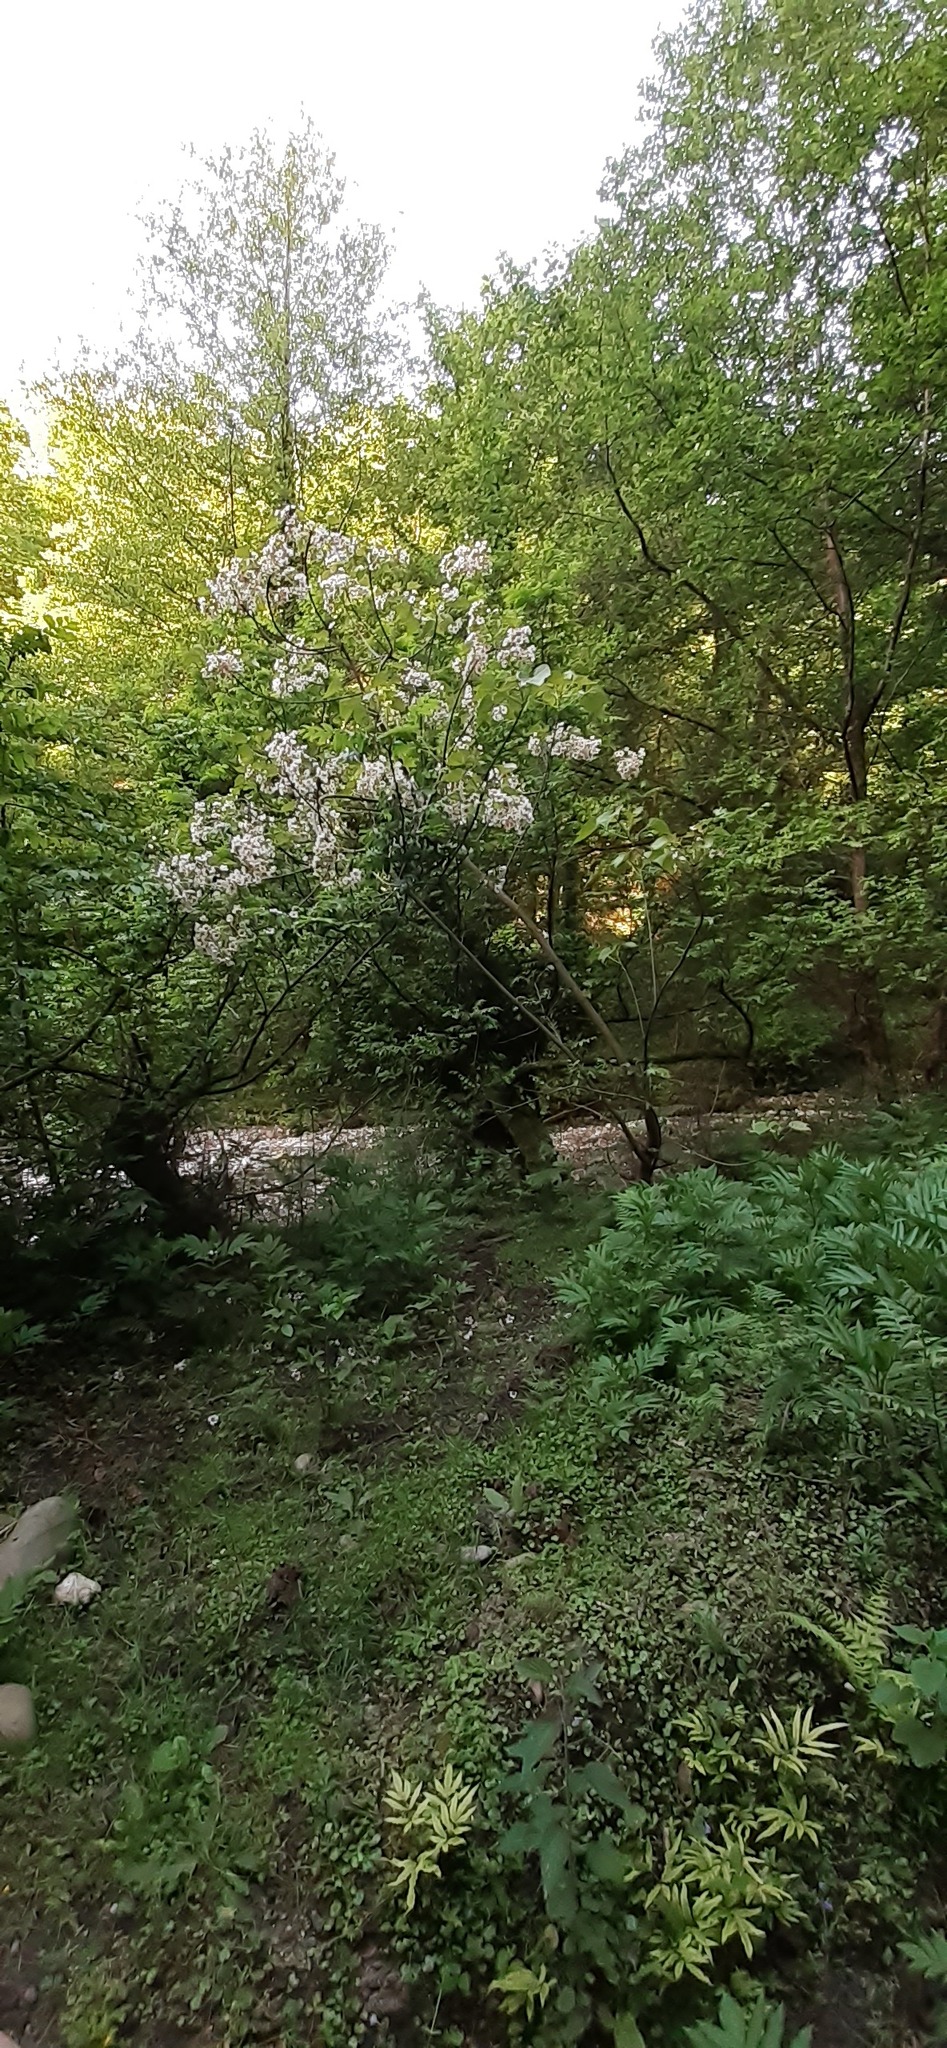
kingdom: Plantae
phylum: Tracheophyta
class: Magnoliopsida
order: Malpighiales
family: Euphorbiaceae
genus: Vernicia
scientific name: Vernicia fordii
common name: Tungoil tree
